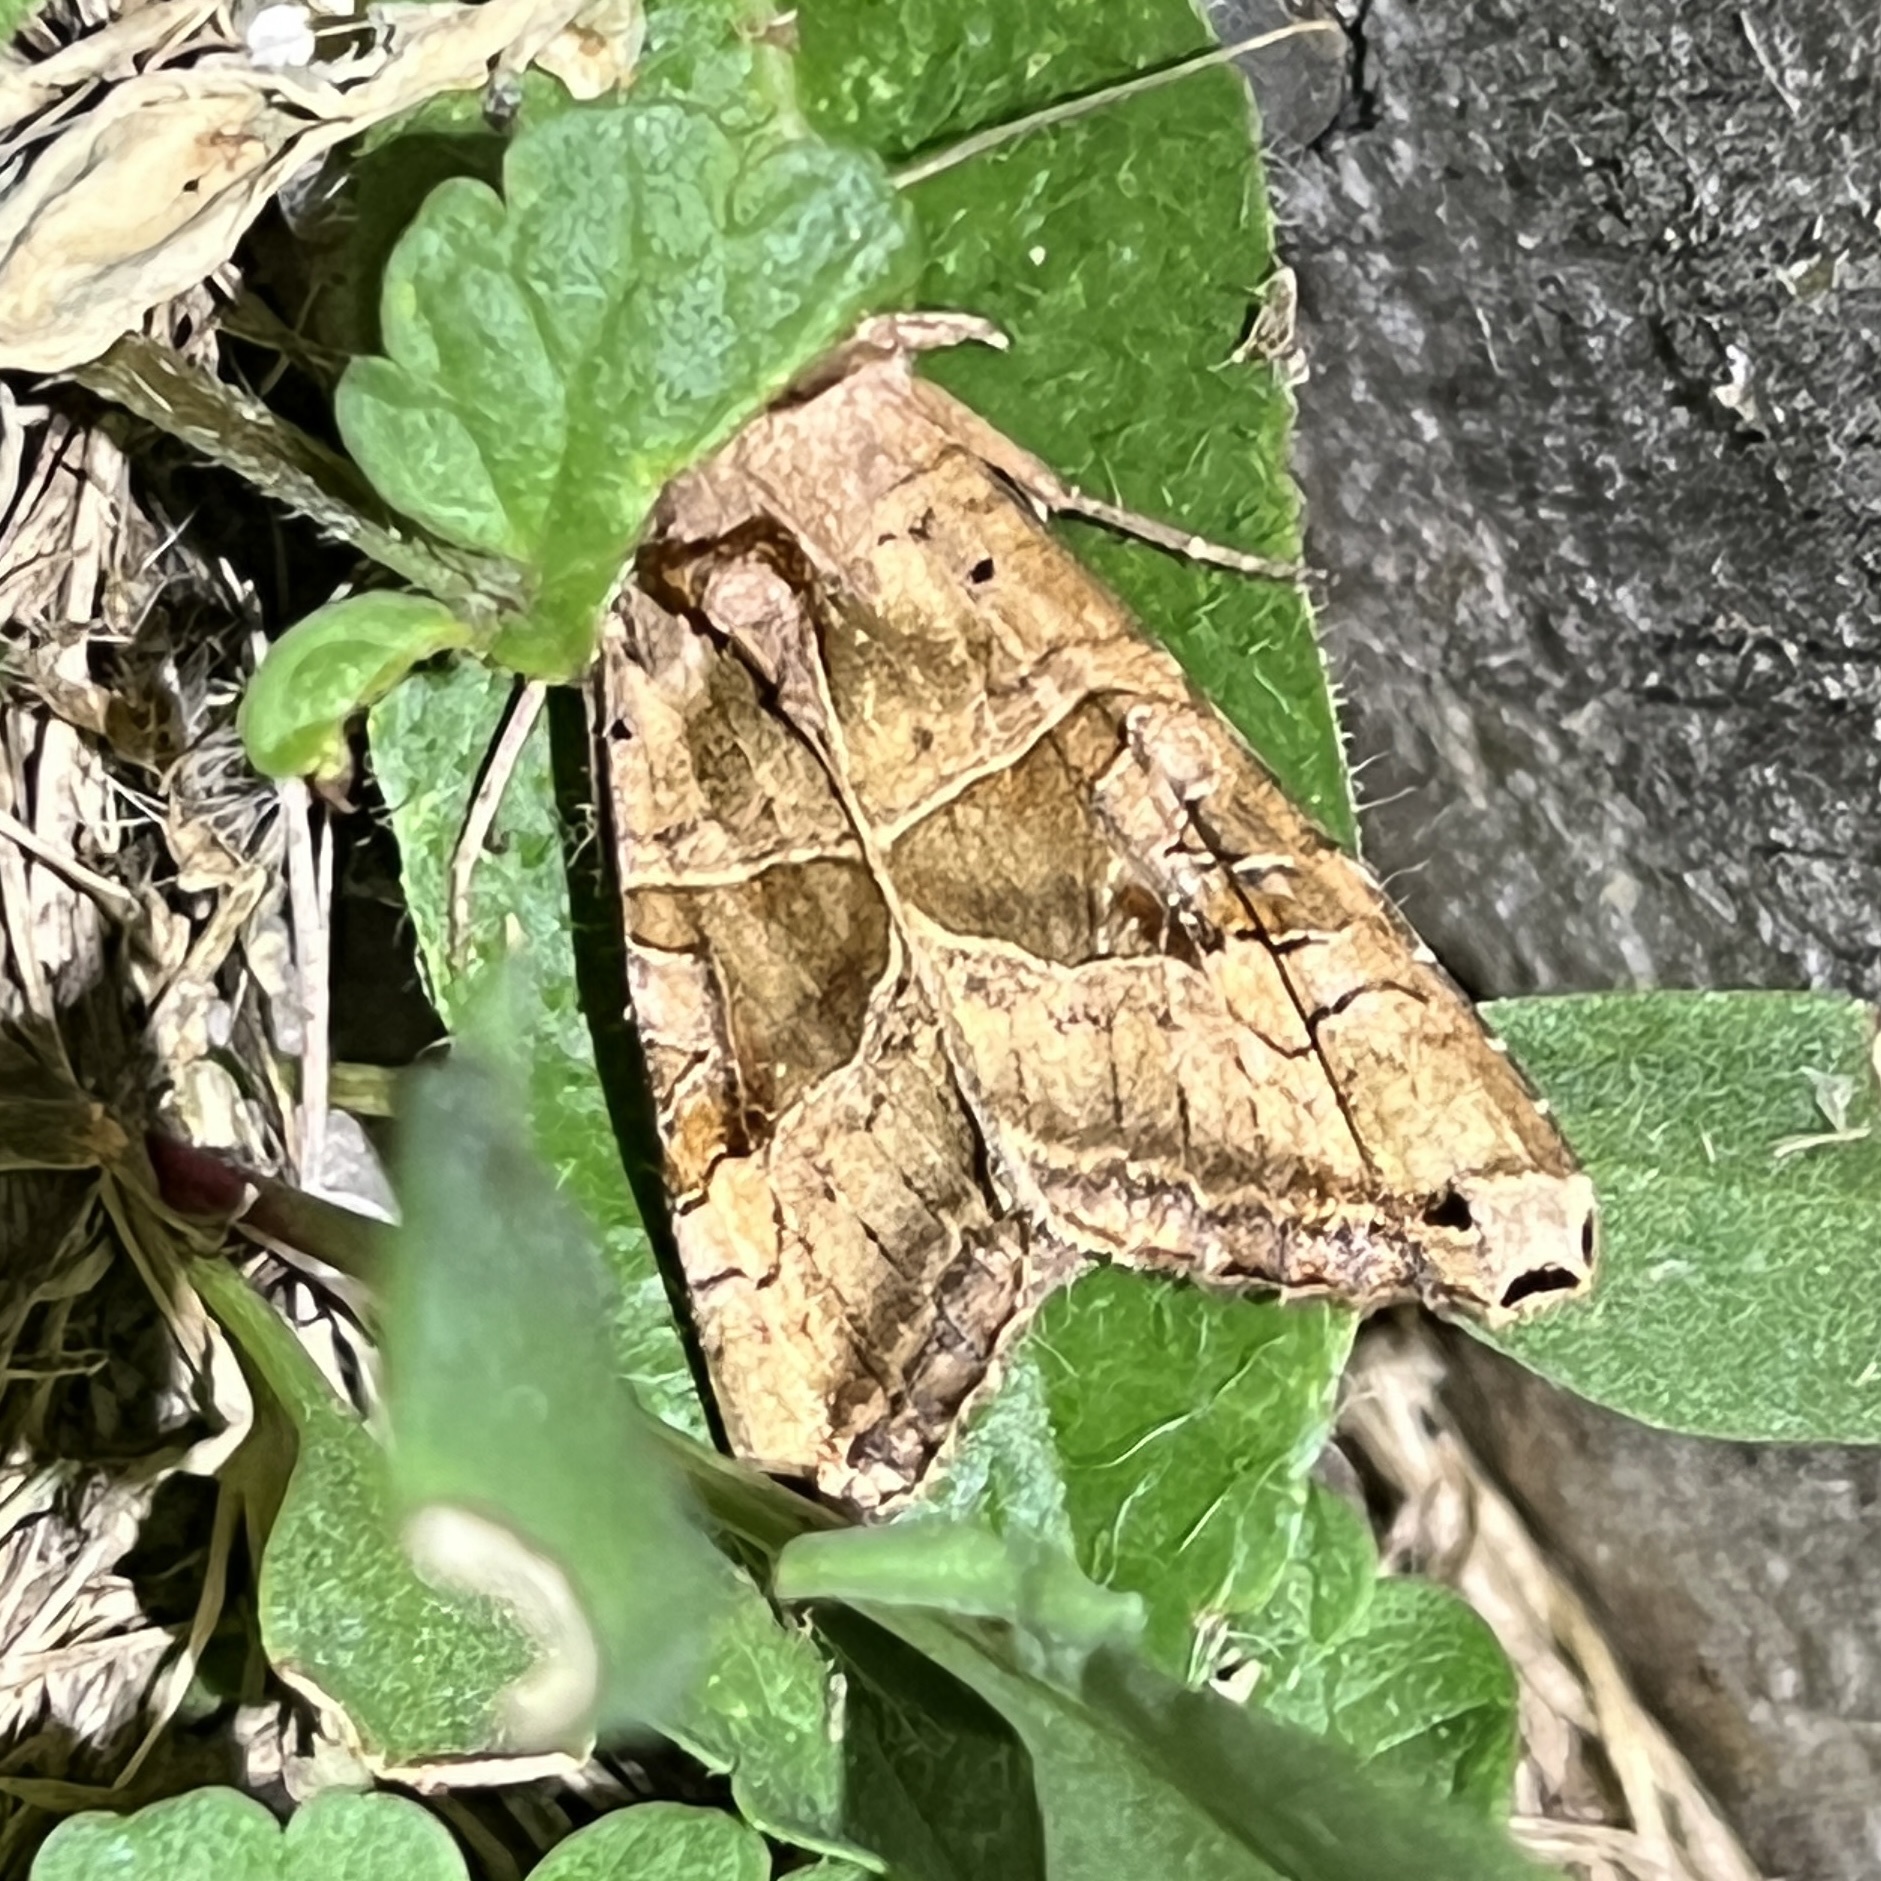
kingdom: Animalia
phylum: Arthropoda
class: Insecta
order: Lepidoptera
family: Noctuidae
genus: Phlogophora
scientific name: Phlogophora periculosa
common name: Brown angle shades
